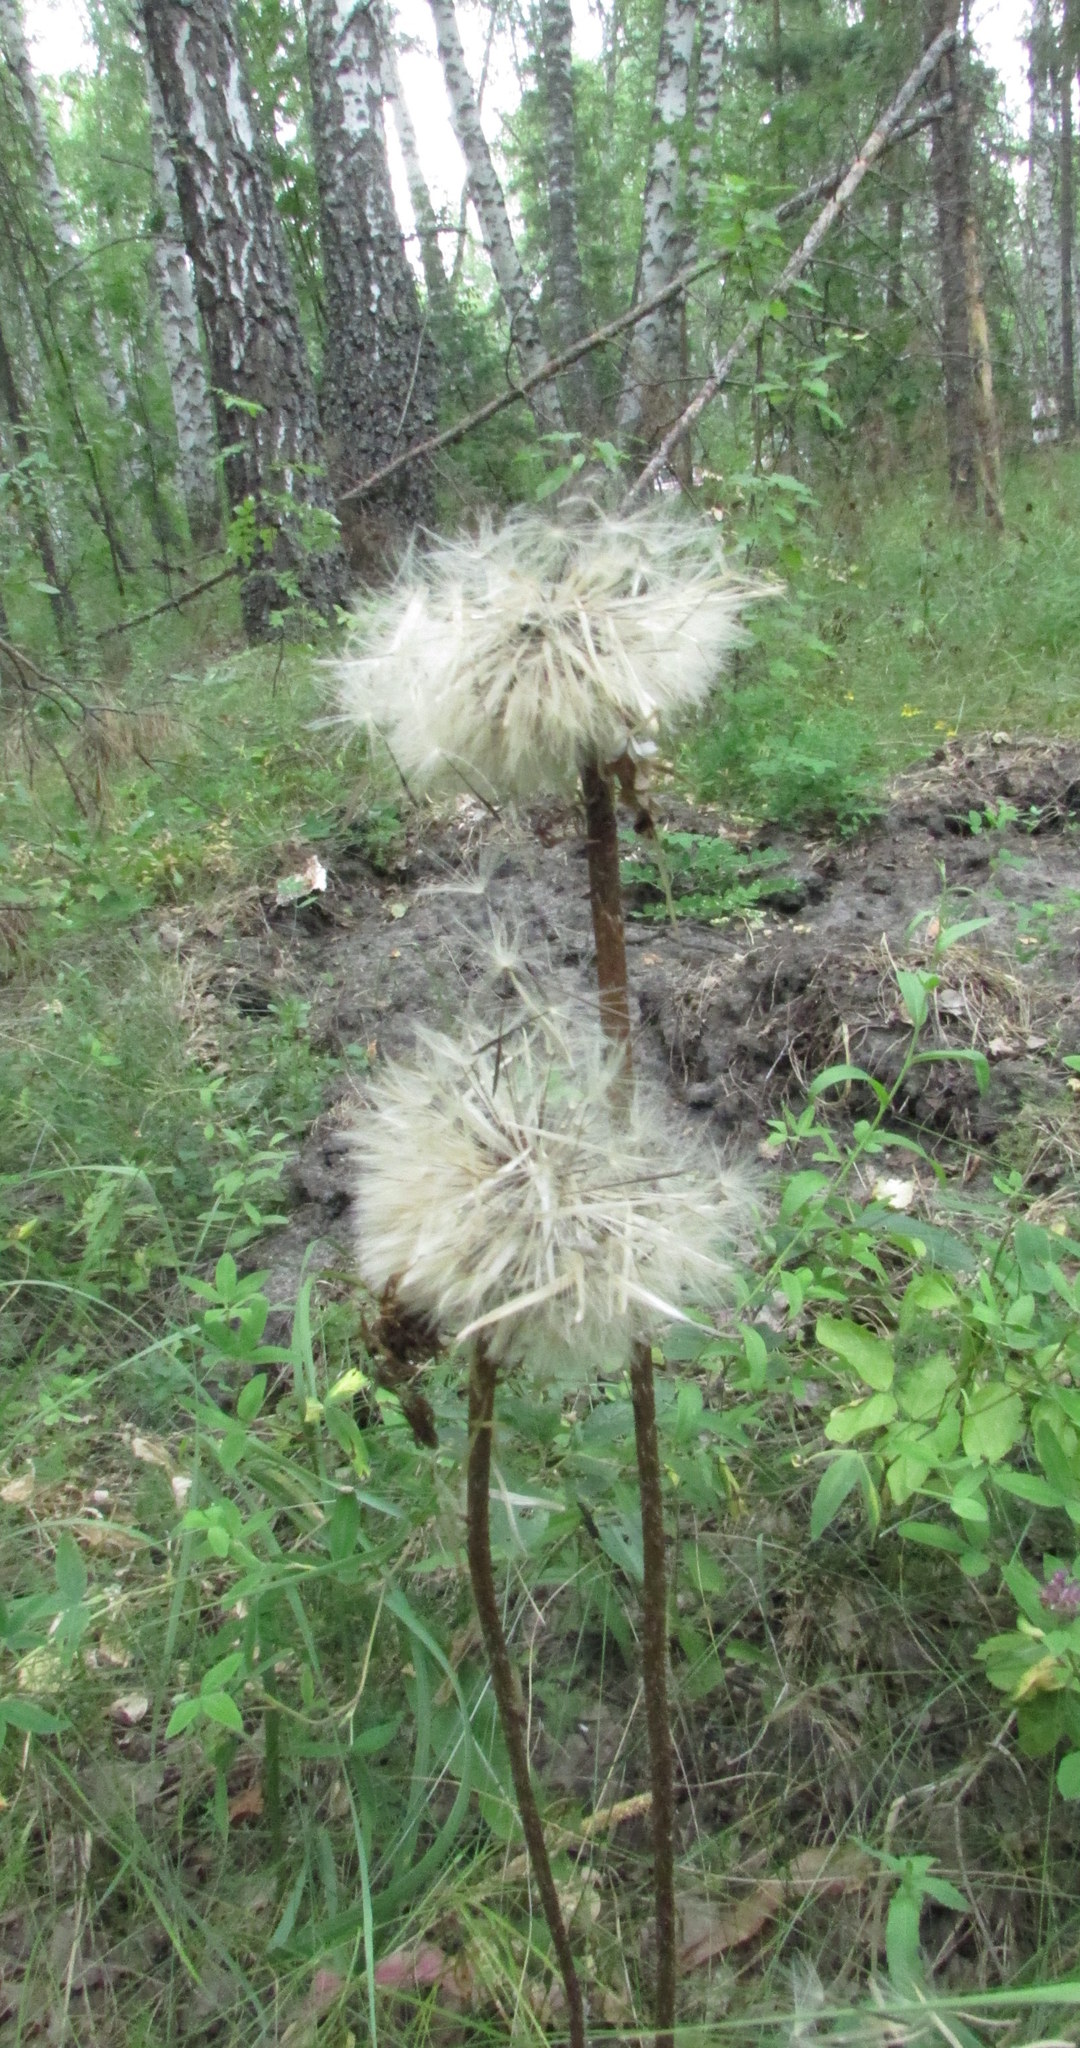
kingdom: Plantae
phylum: Tracheophyta
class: Magnoliopsida
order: Asterales
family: Asteraceae
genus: Trommsdorffia
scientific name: Trommsdorffia maculata
